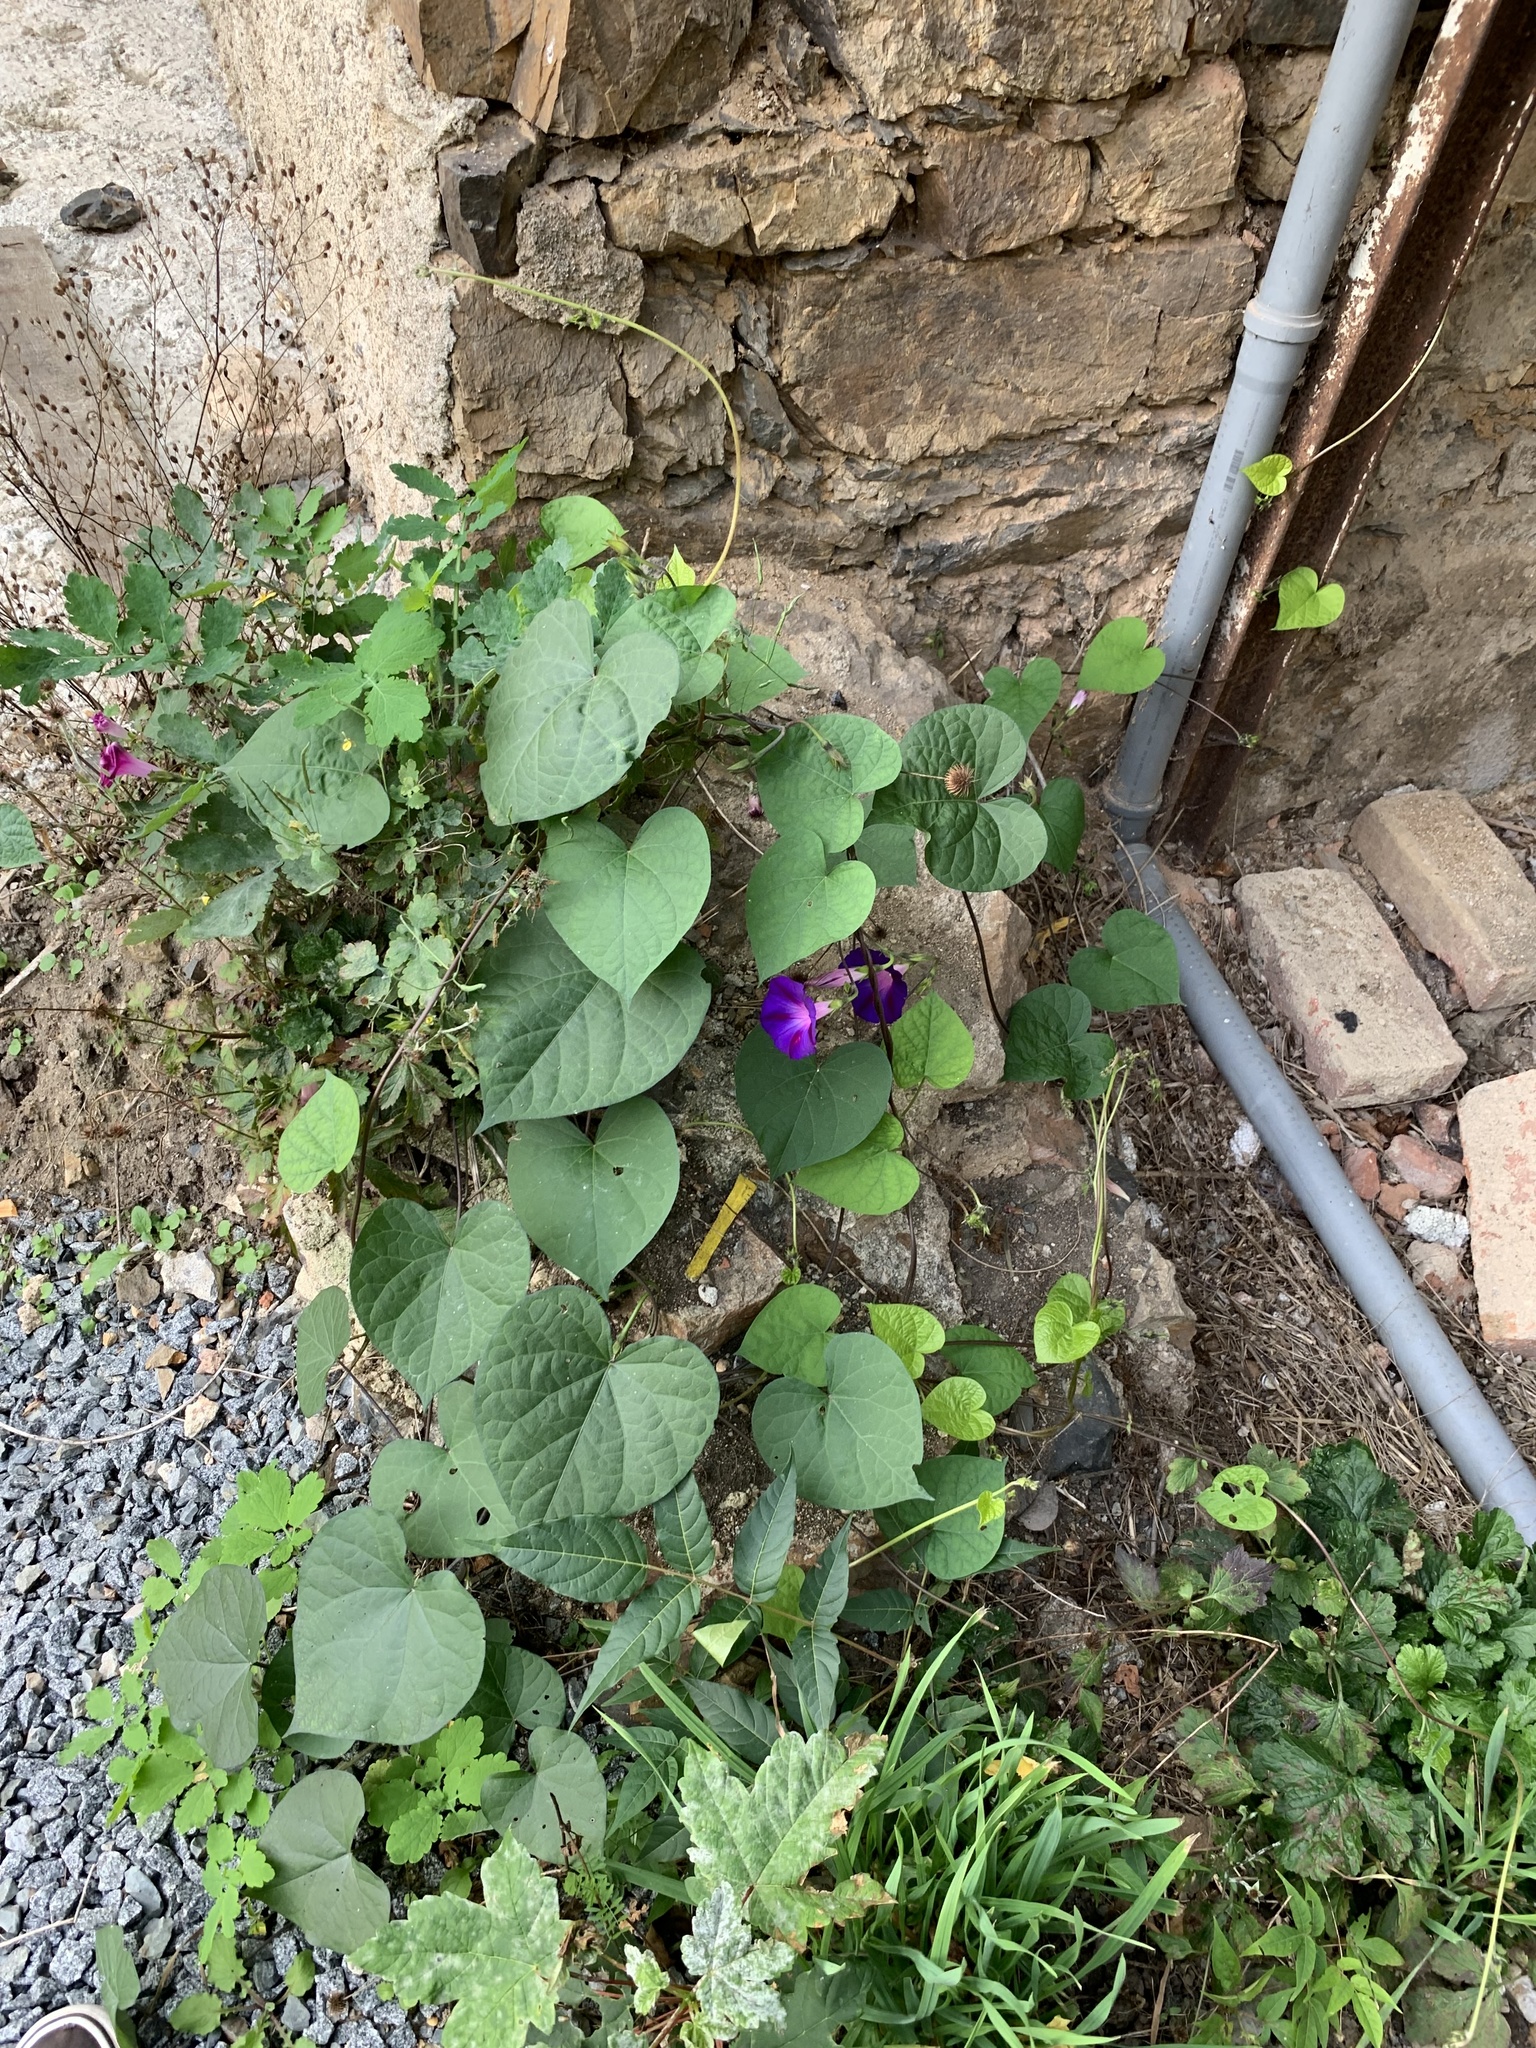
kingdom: Plantae
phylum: Tracheophyta
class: Magnoliopsida
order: Solanales
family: Convolvulaceae
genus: Ipomoea
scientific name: Ipomoea purpurea
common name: Common morning-glory
